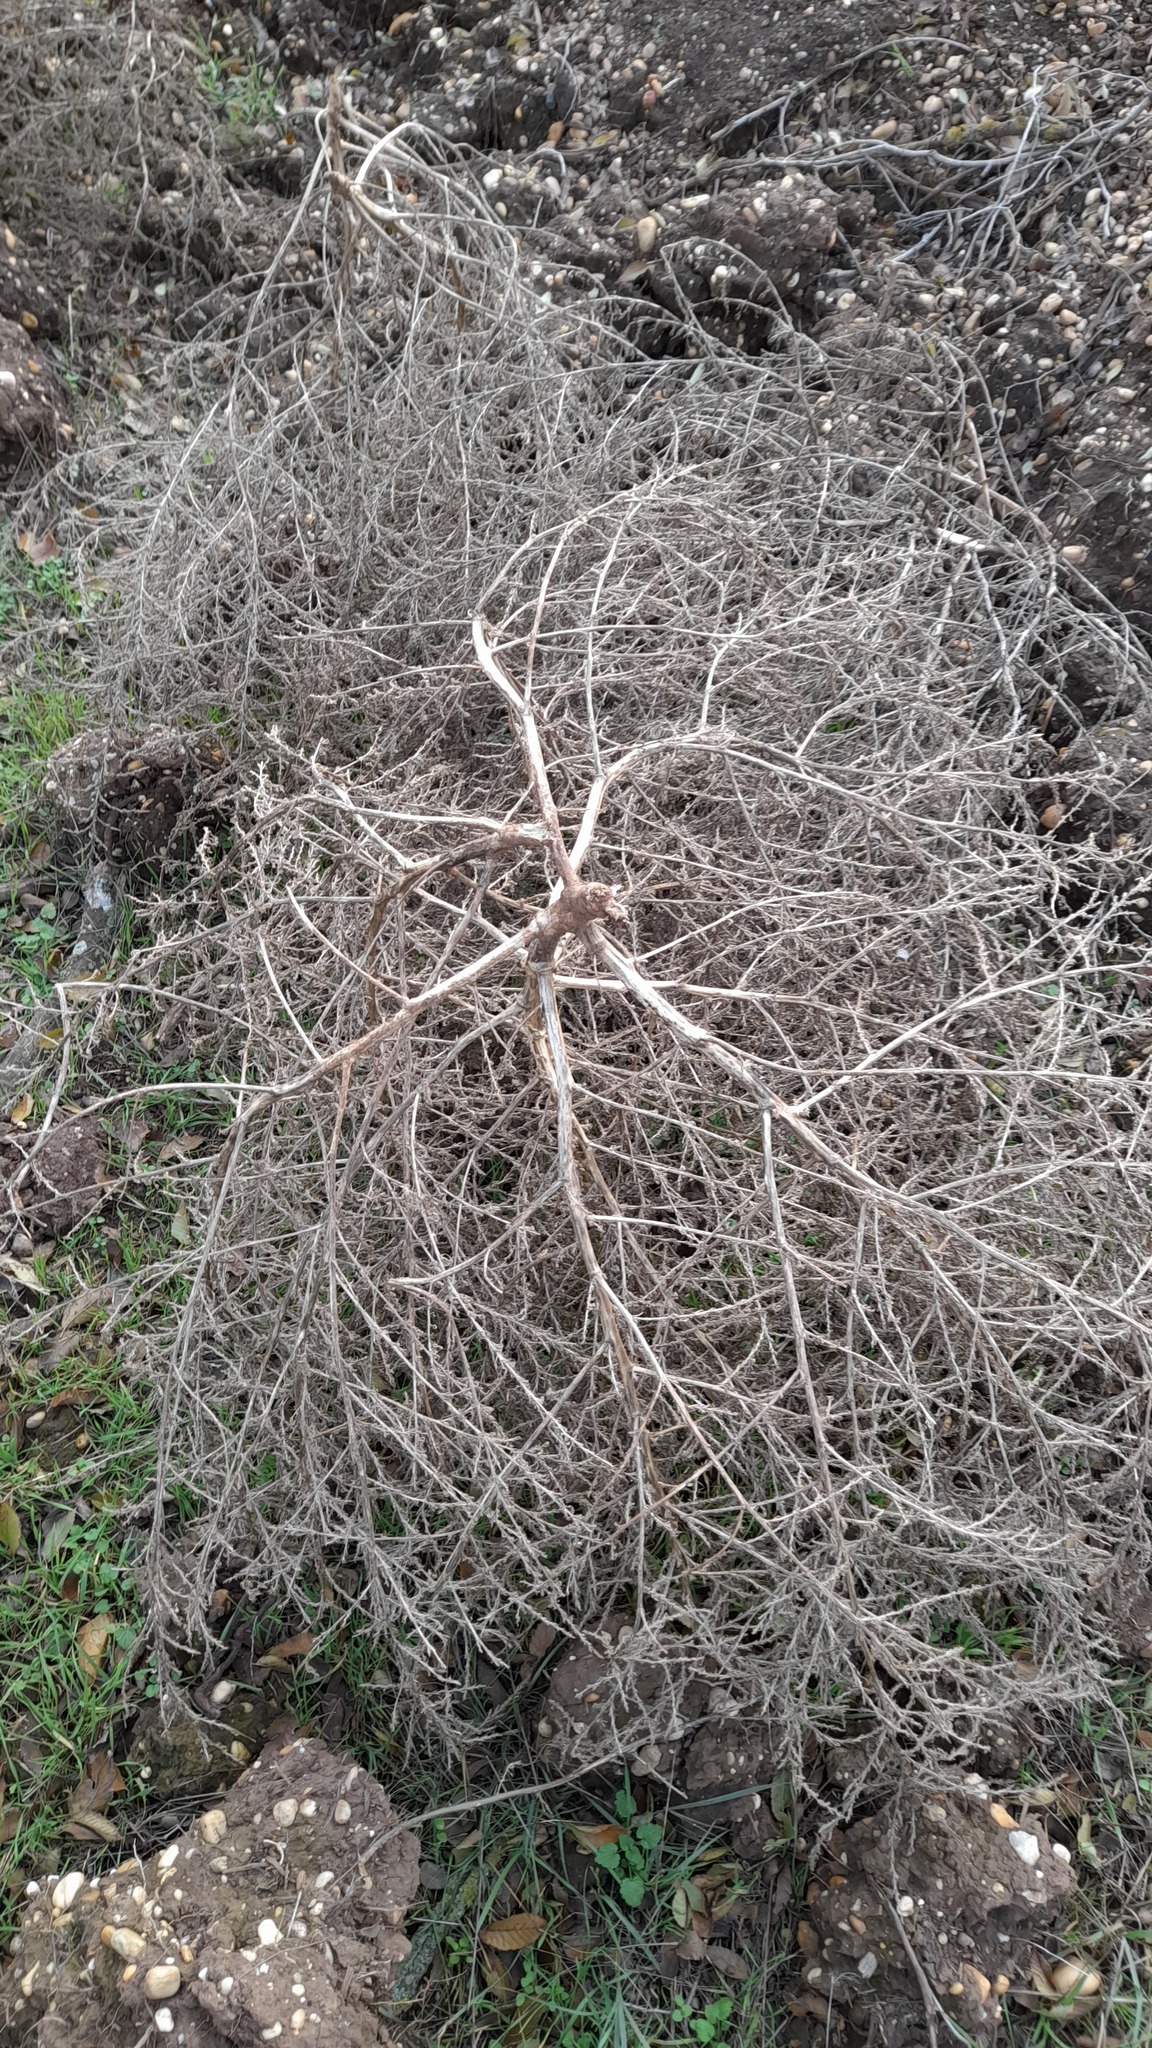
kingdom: Plantae
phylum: Tracheophyta
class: Magnoliopsida
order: Caryophyllales
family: Amaranthaceae
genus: Amaranthus
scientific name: Amaranthus albus
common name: White pigweed
